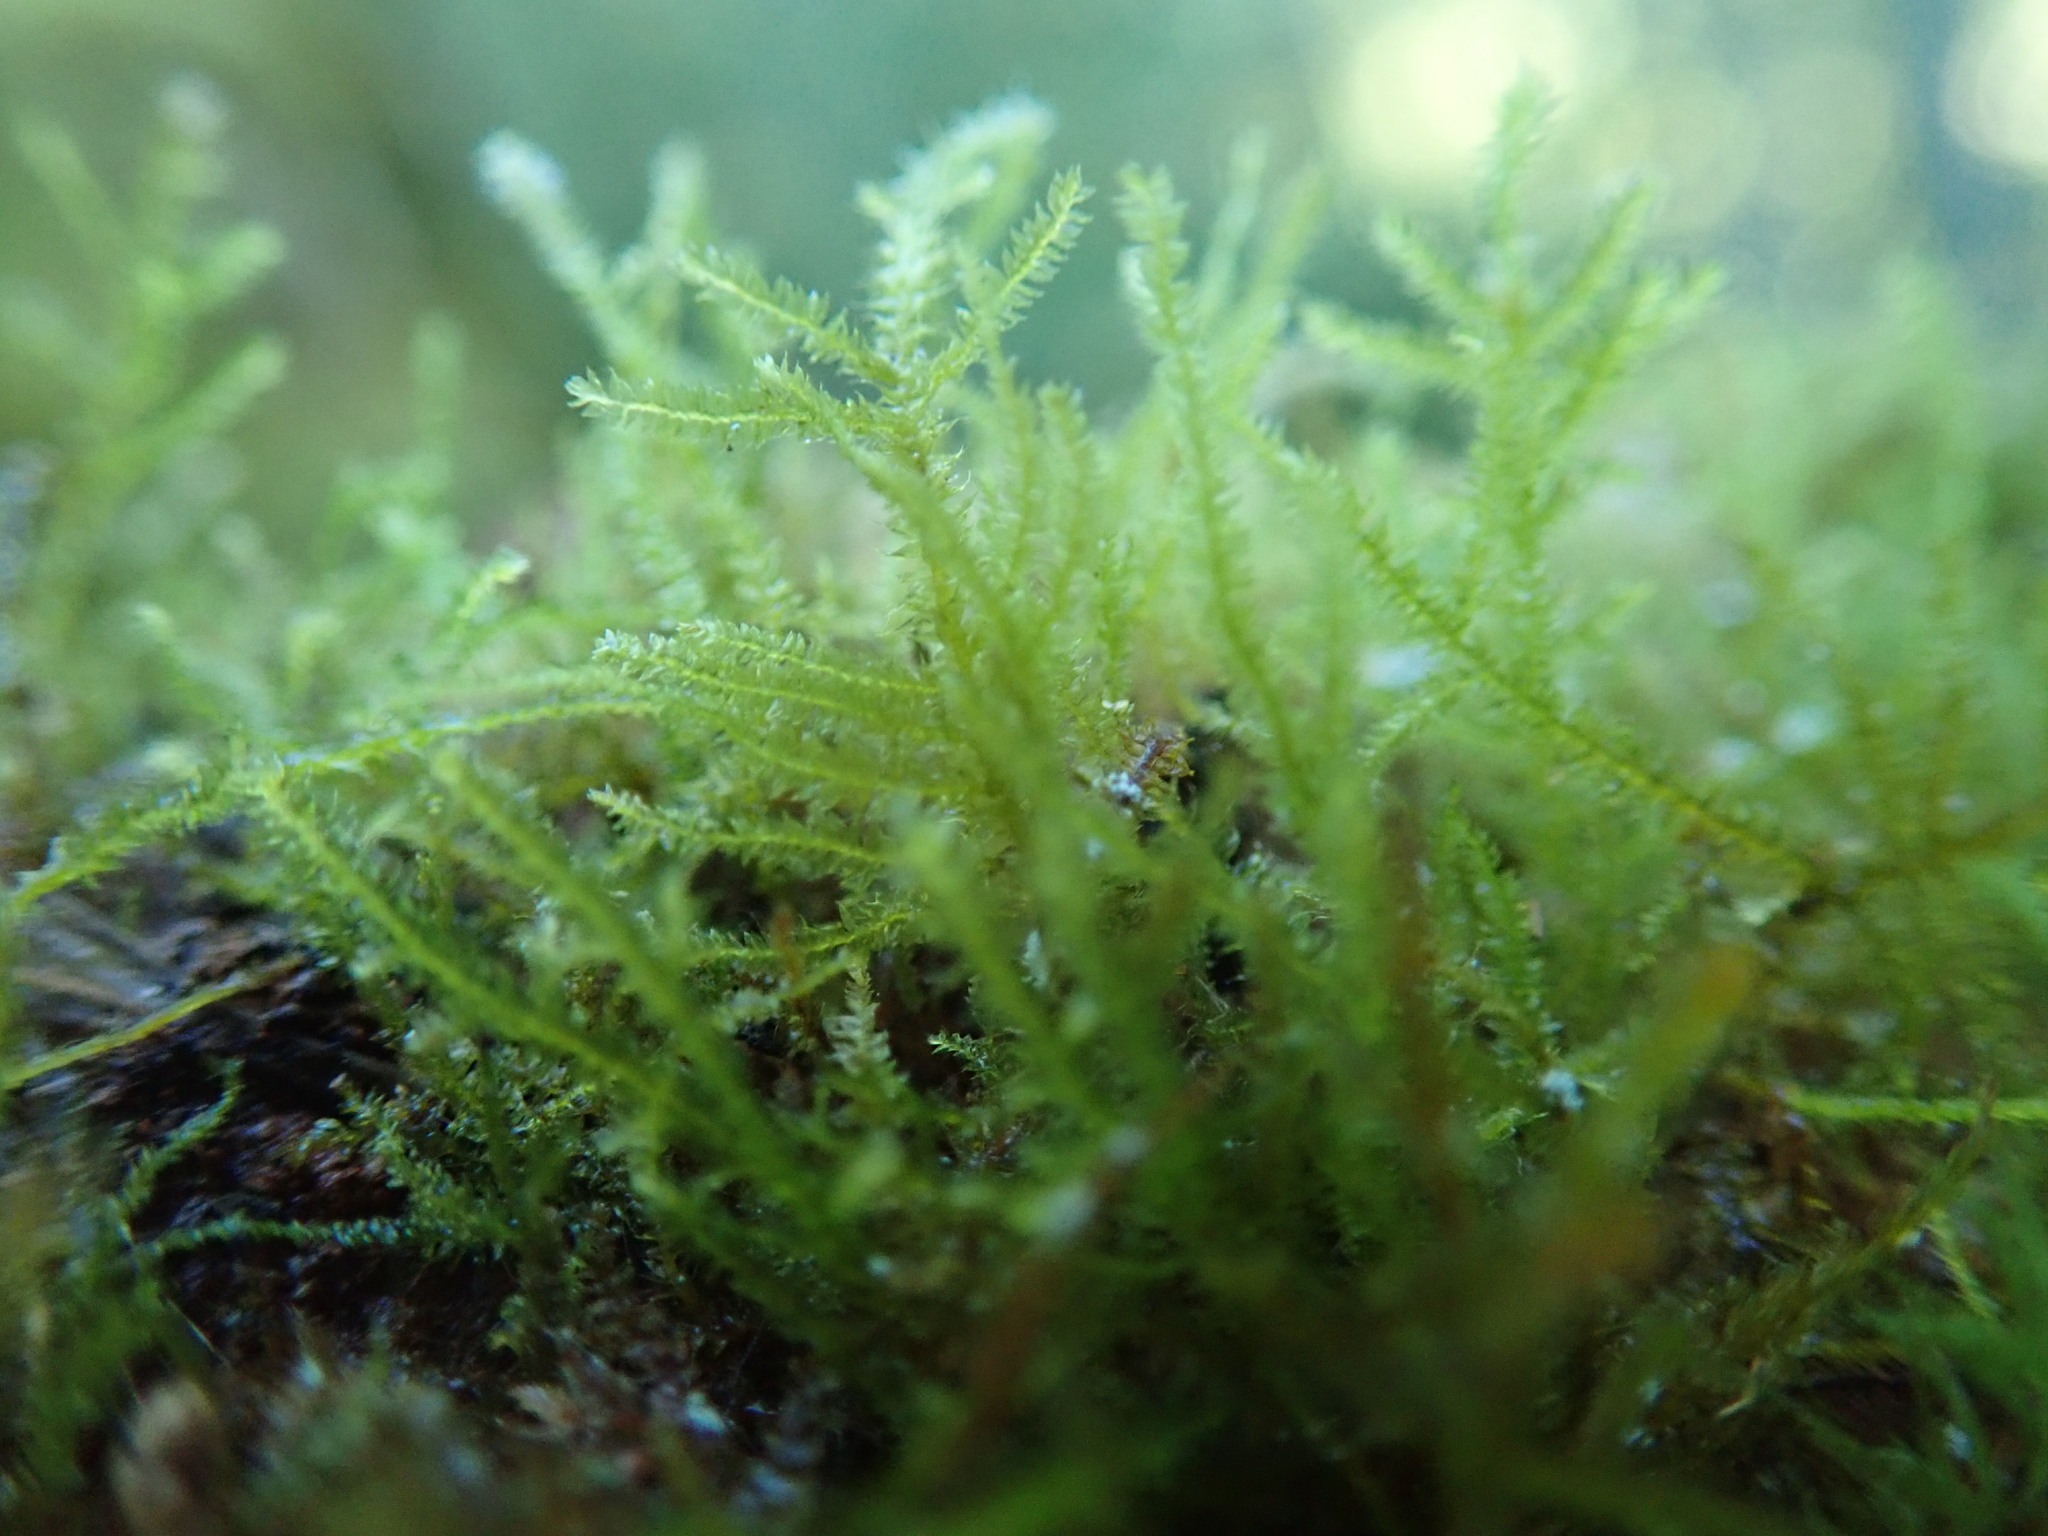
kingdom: Plantae
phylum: Bryophyta
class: Bryopsida
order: Hypnales
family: Heterocladiellaceae
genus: Heterocladiella
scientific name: Heterocladiella procurrens
